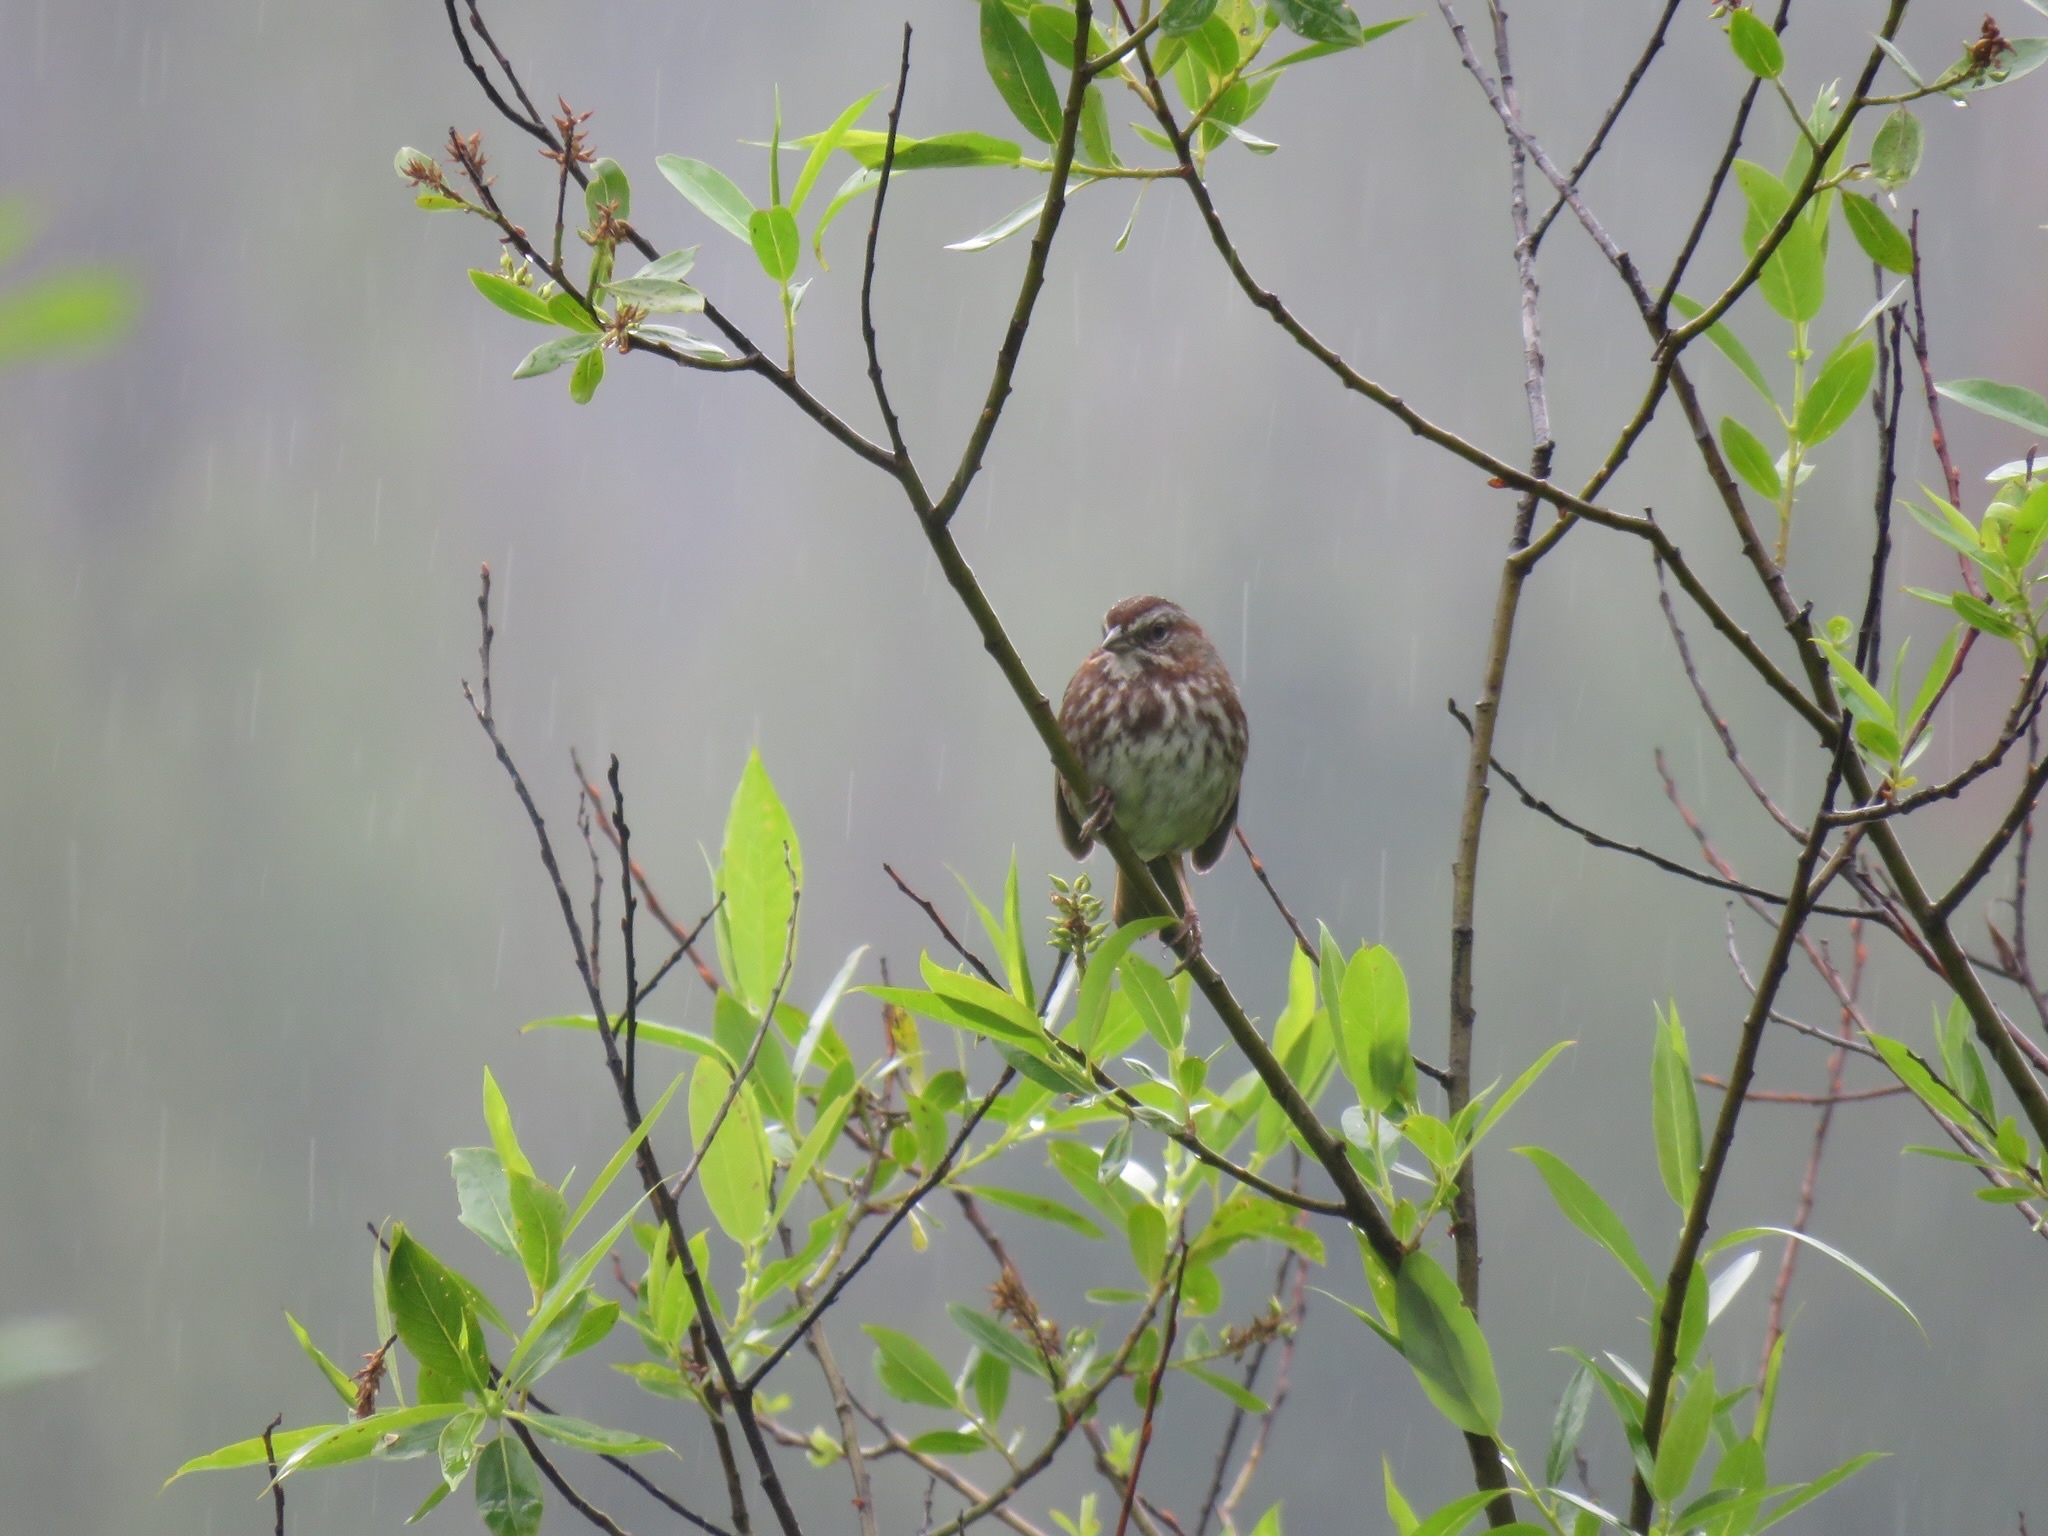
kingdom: Animalia
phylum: Chordata
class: Aves
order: Passeriformes
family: Passerellidae
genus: Melospiza
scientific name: Melospiza melodia
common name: Song sparrow
